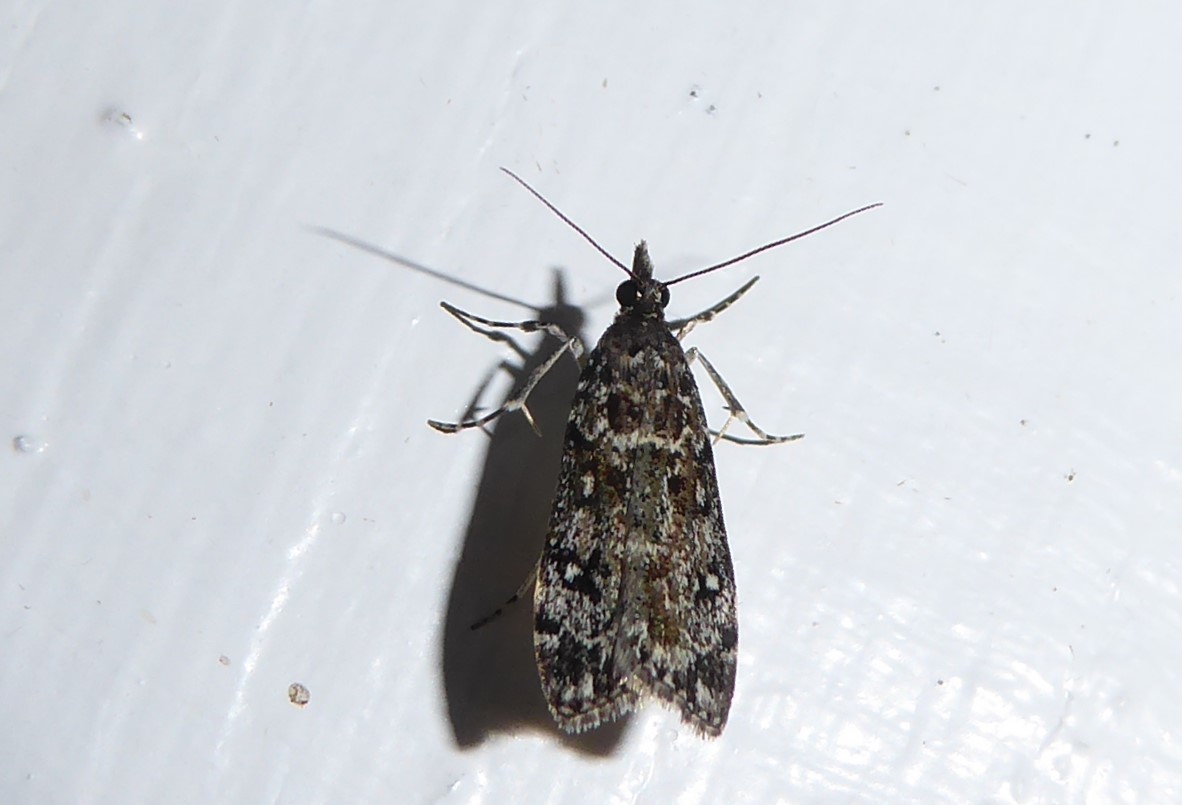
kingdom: Animalia
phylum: Arthropoda
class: Insecta
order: Lepidoptera
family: Crambidae
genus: Eudonia
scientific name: Eudonia philerga
